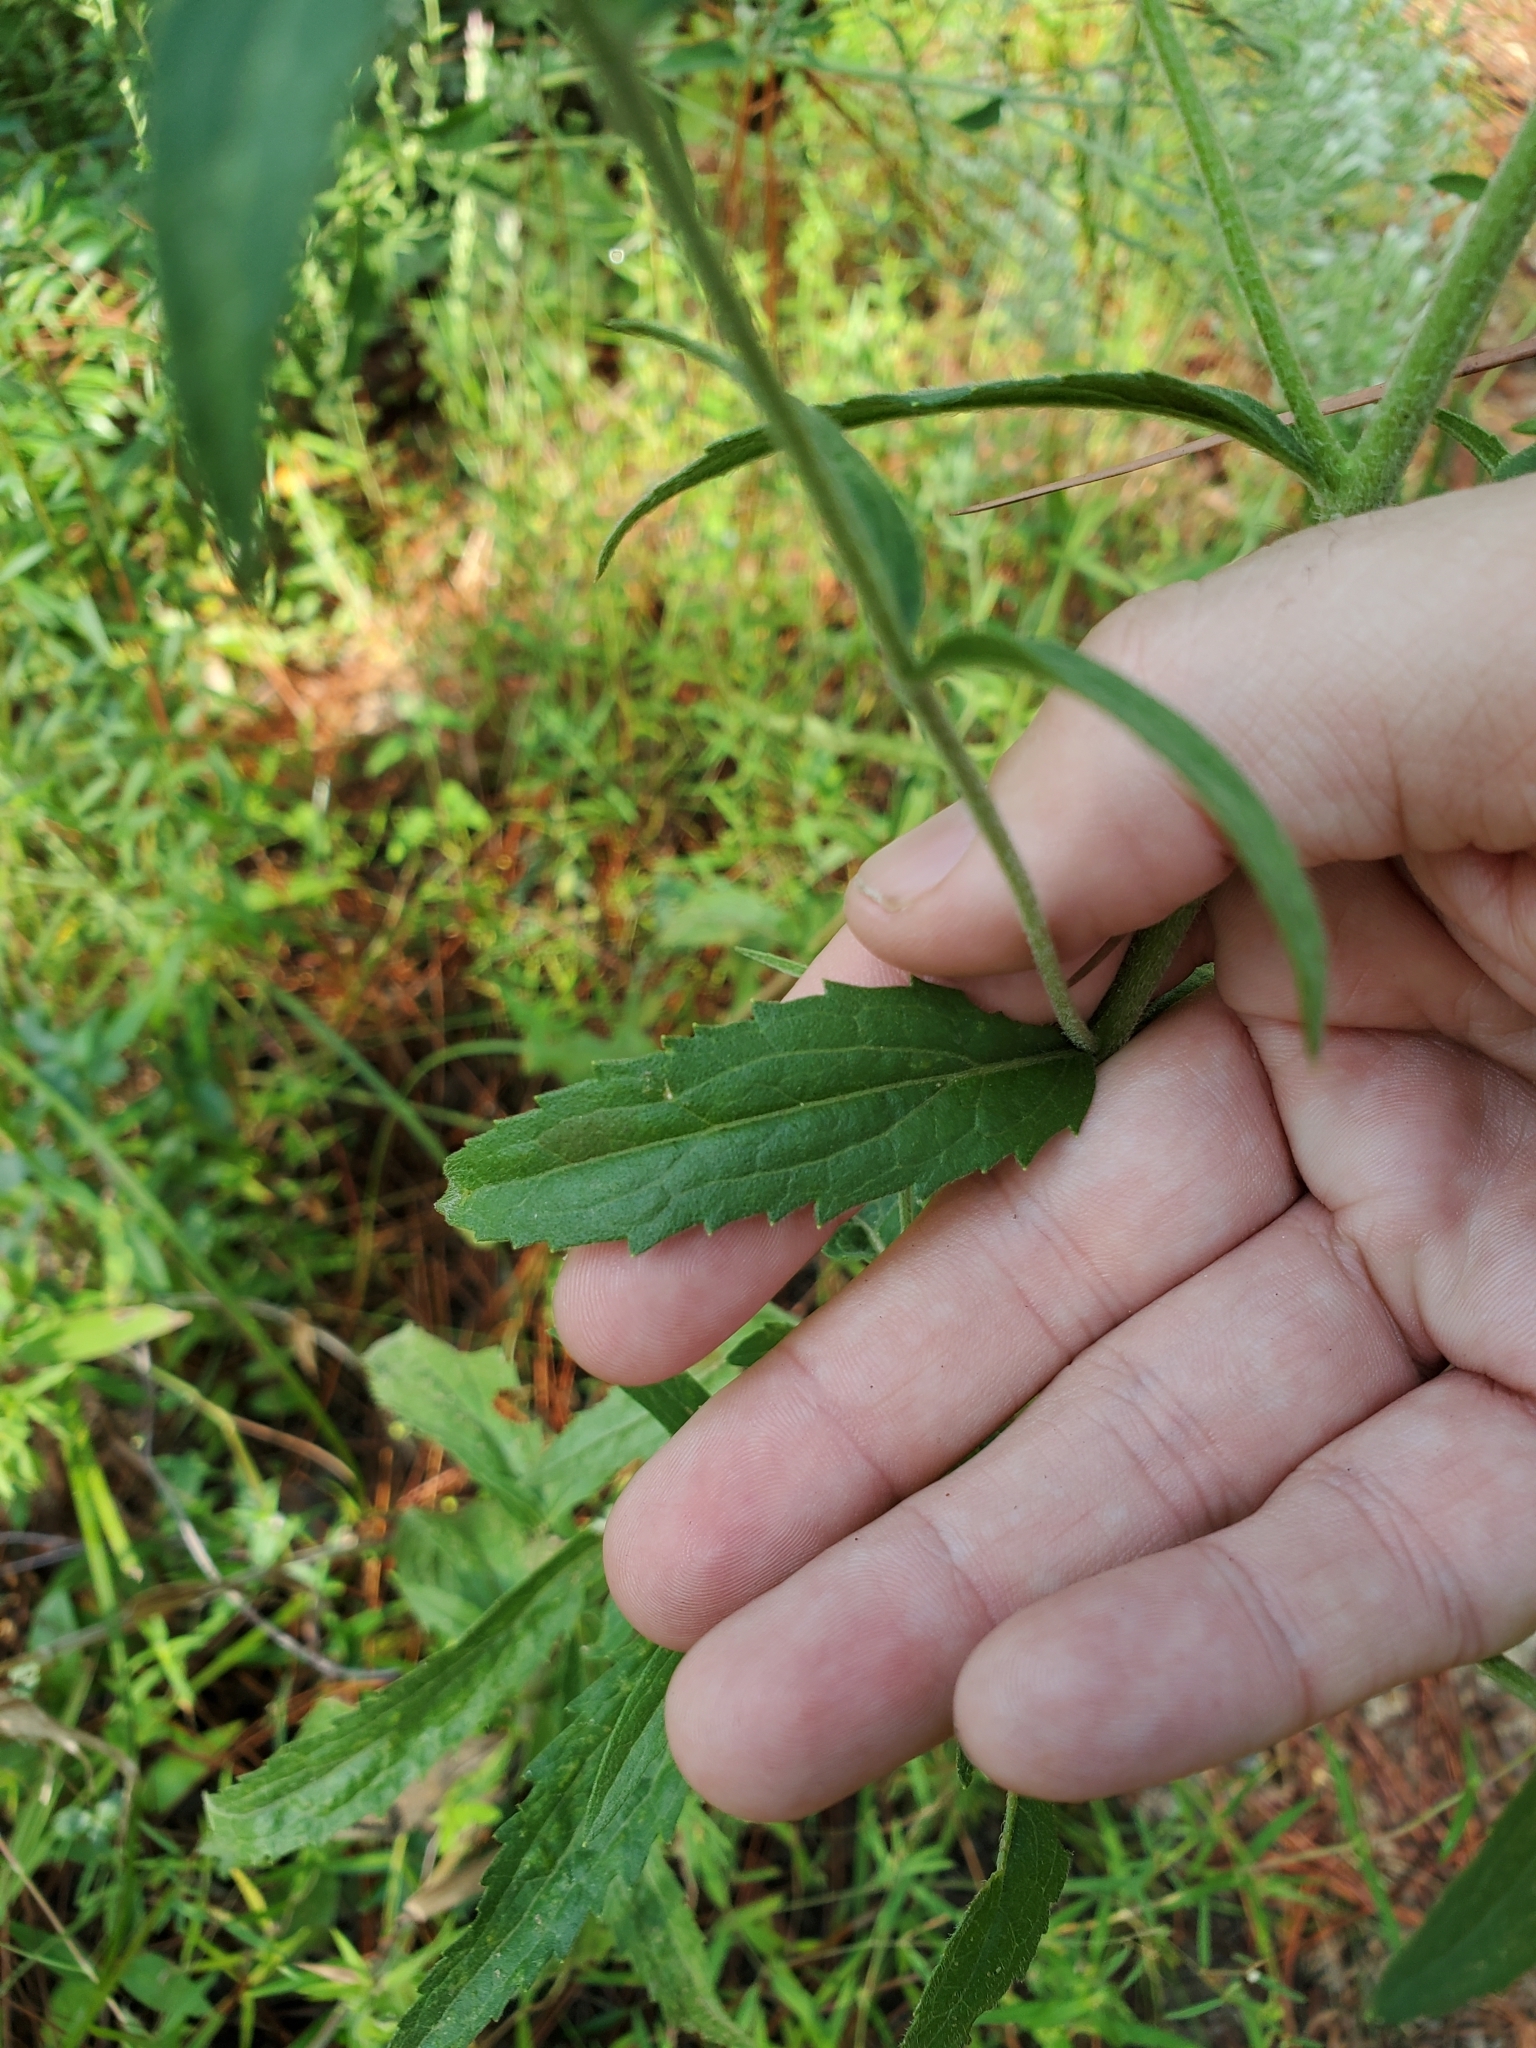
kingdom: Plantae
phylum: Tracheophyta
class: Magnoliopsida
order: Asterales
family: Asteraceae
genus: Eupatorium
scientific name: Eupatorium album
